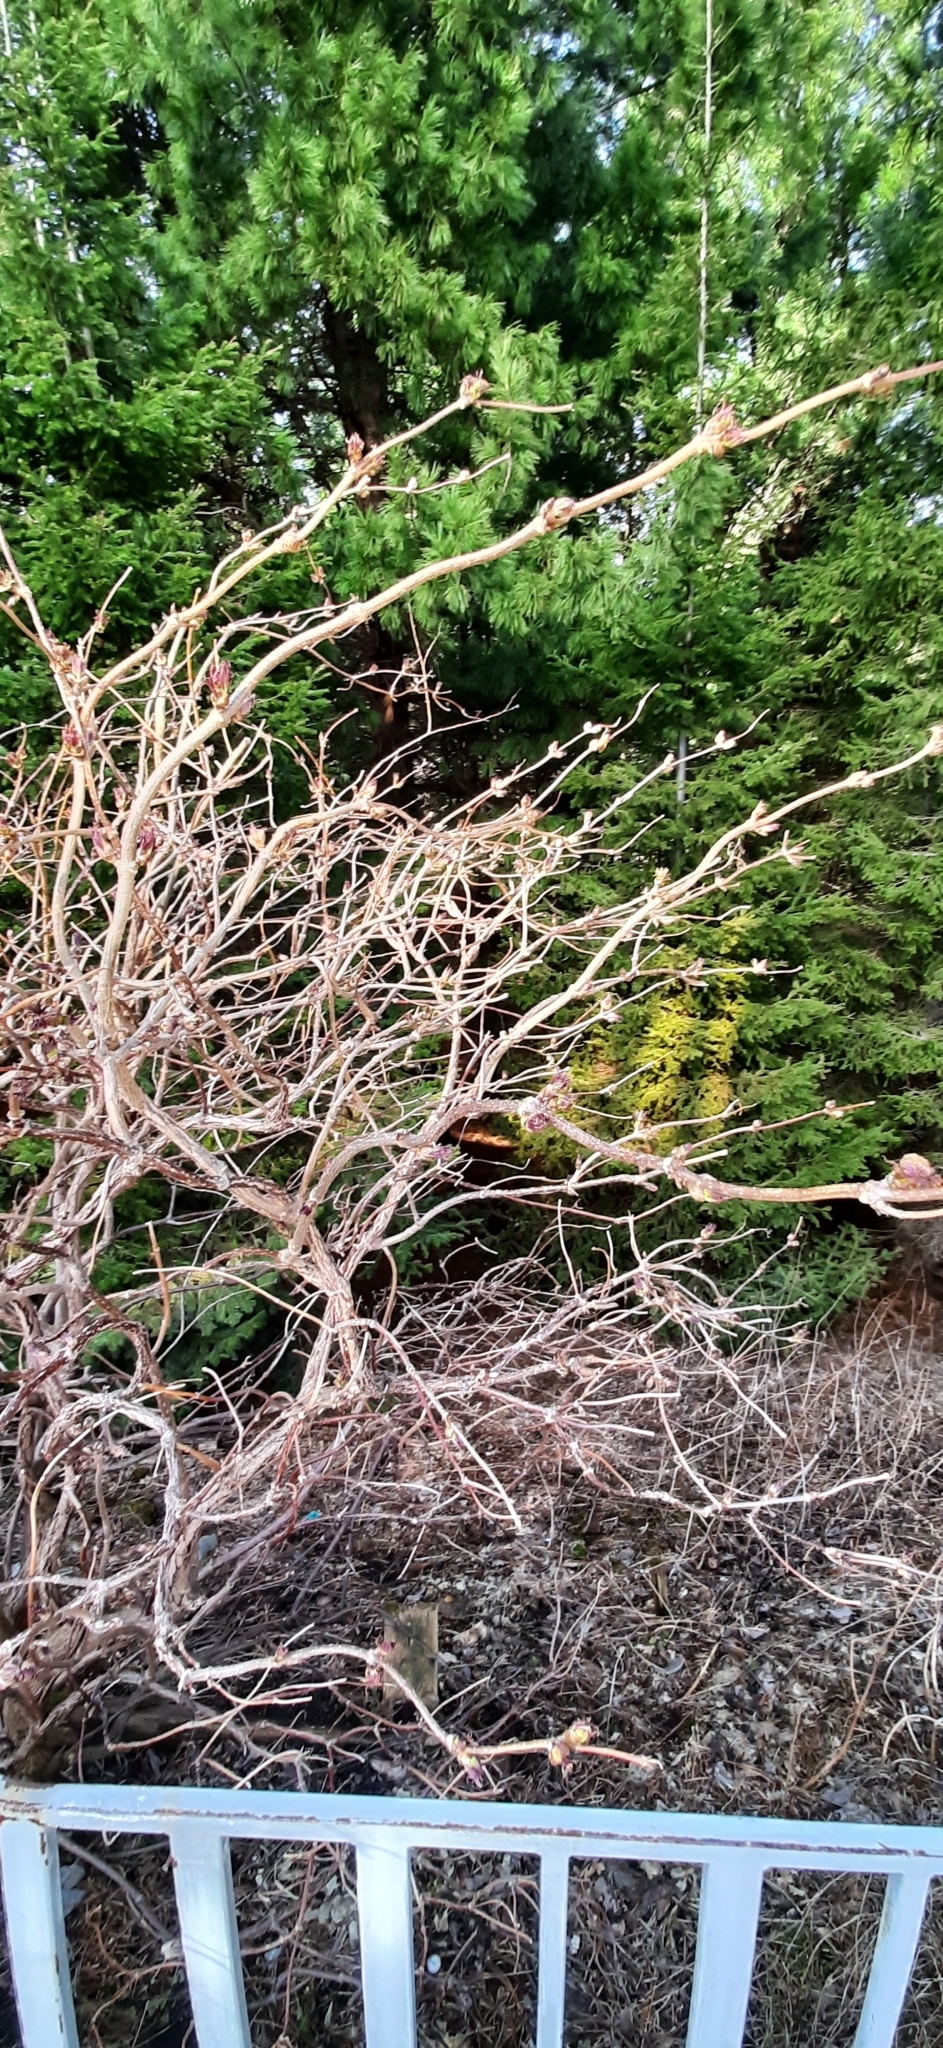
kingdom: Plantae
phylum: Tracheophyta
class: Magnoliopsida
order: Solanales
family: Solanaceae
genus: Solanum
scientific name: Solanum dulcamara
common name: Climbing nightshade
